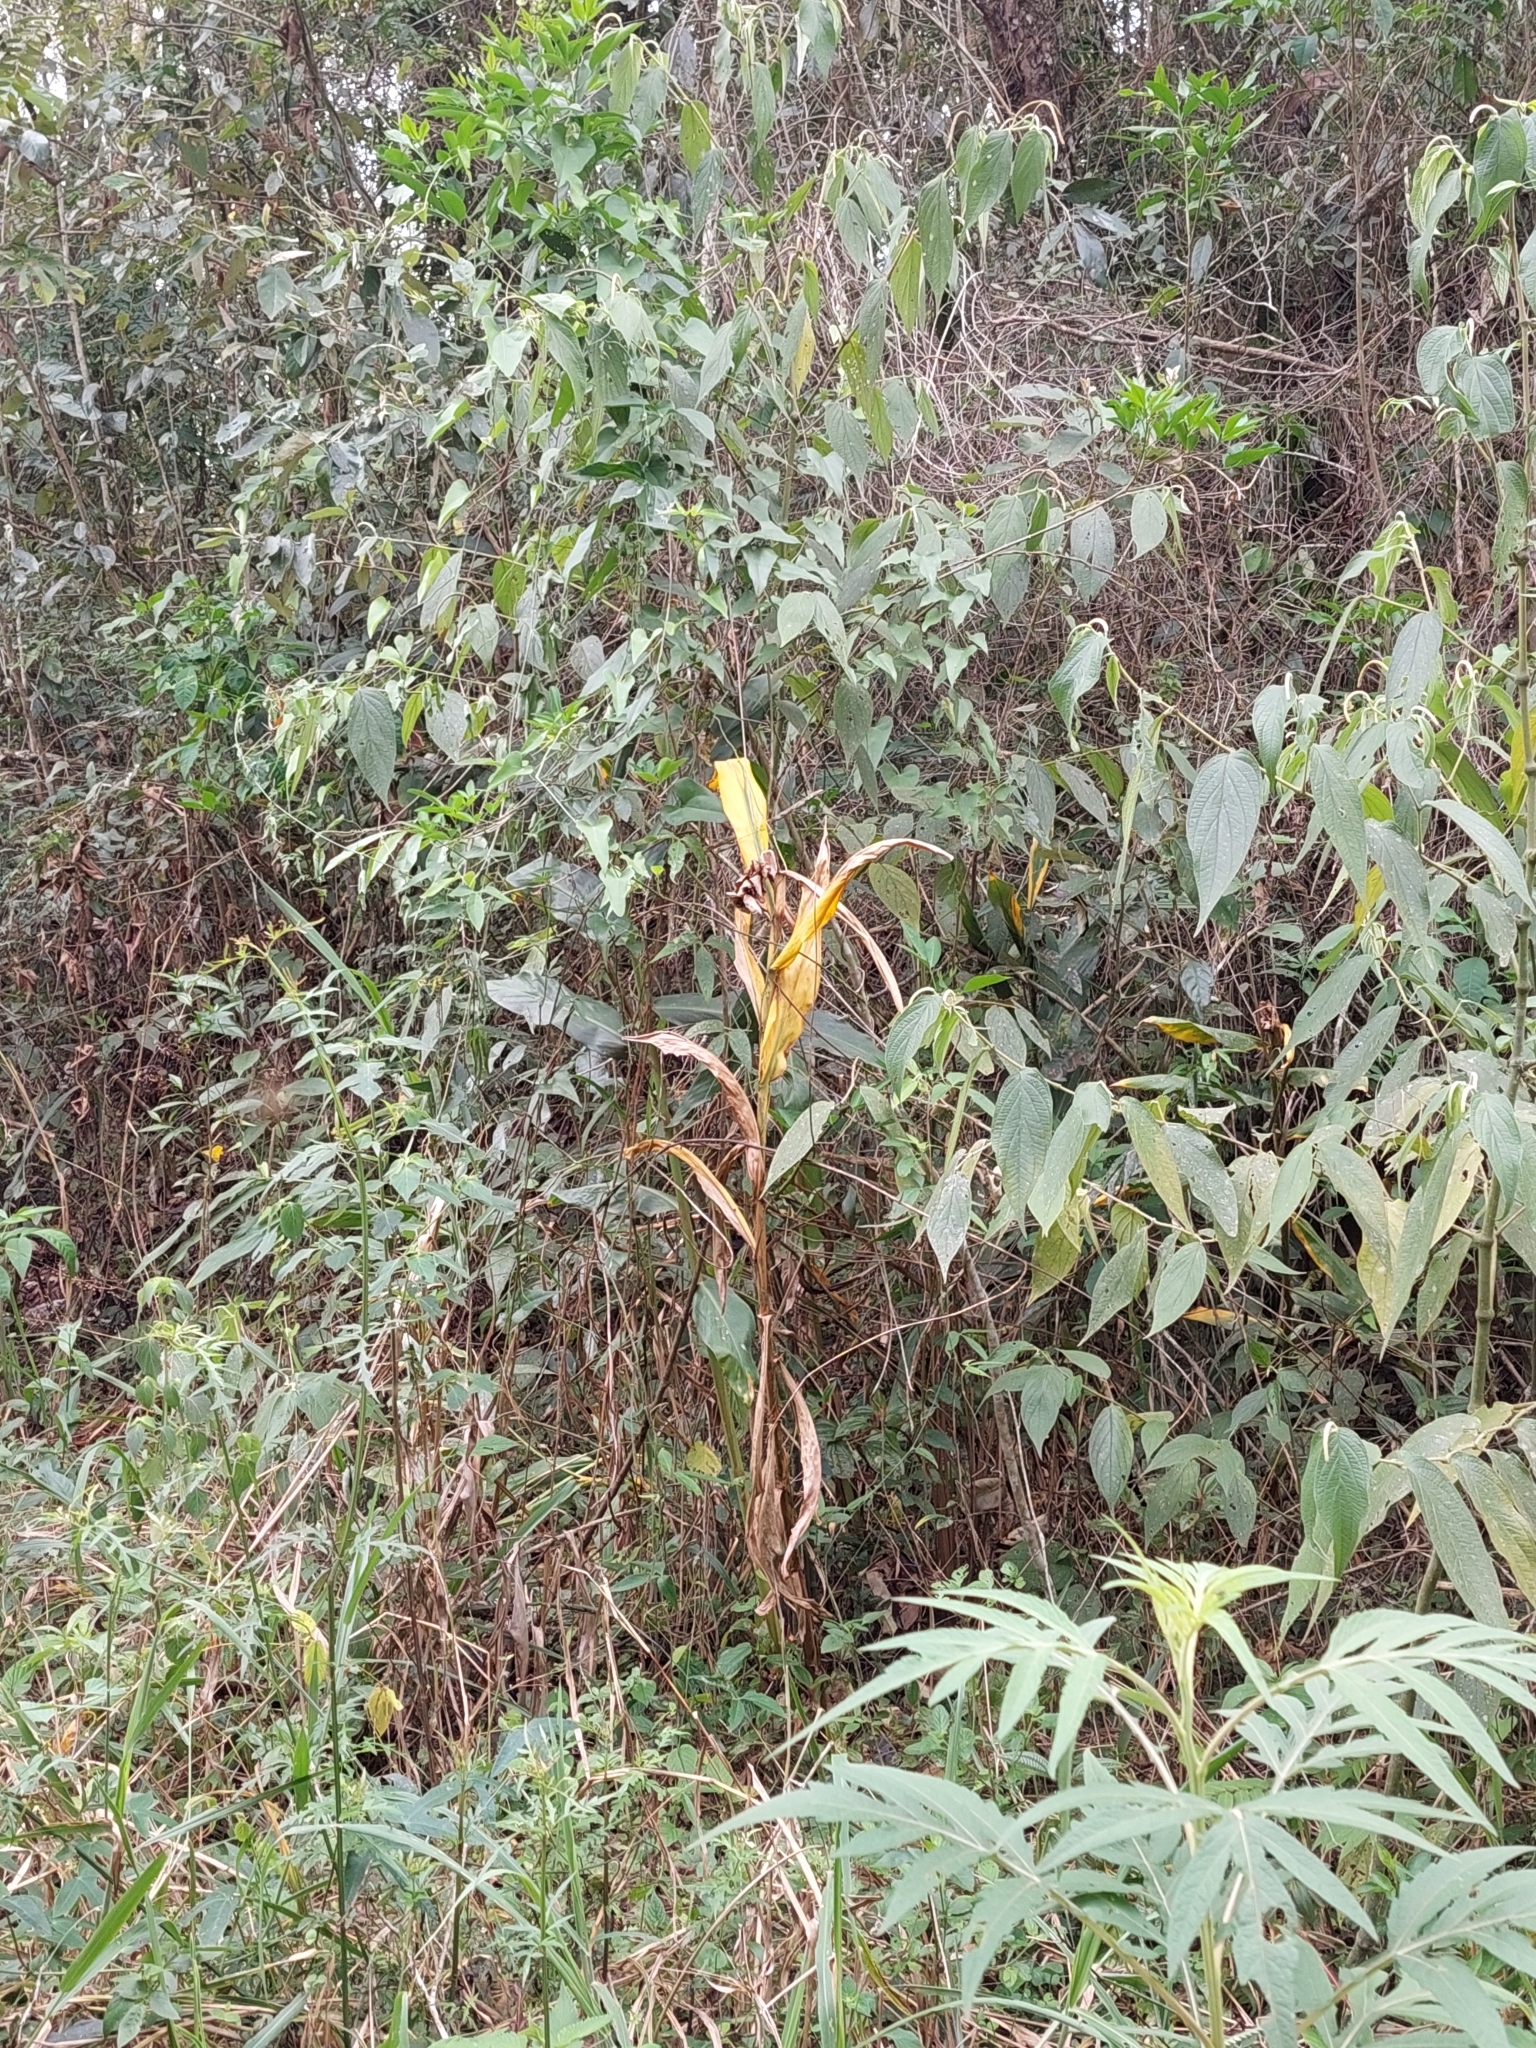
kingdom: Plantae
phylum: Tracheophyta
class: Liliopsida
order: Zingiberales
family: Zingiberaceae
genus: Hedychium
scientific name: Hedychium coronarium
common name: White garland-lily
